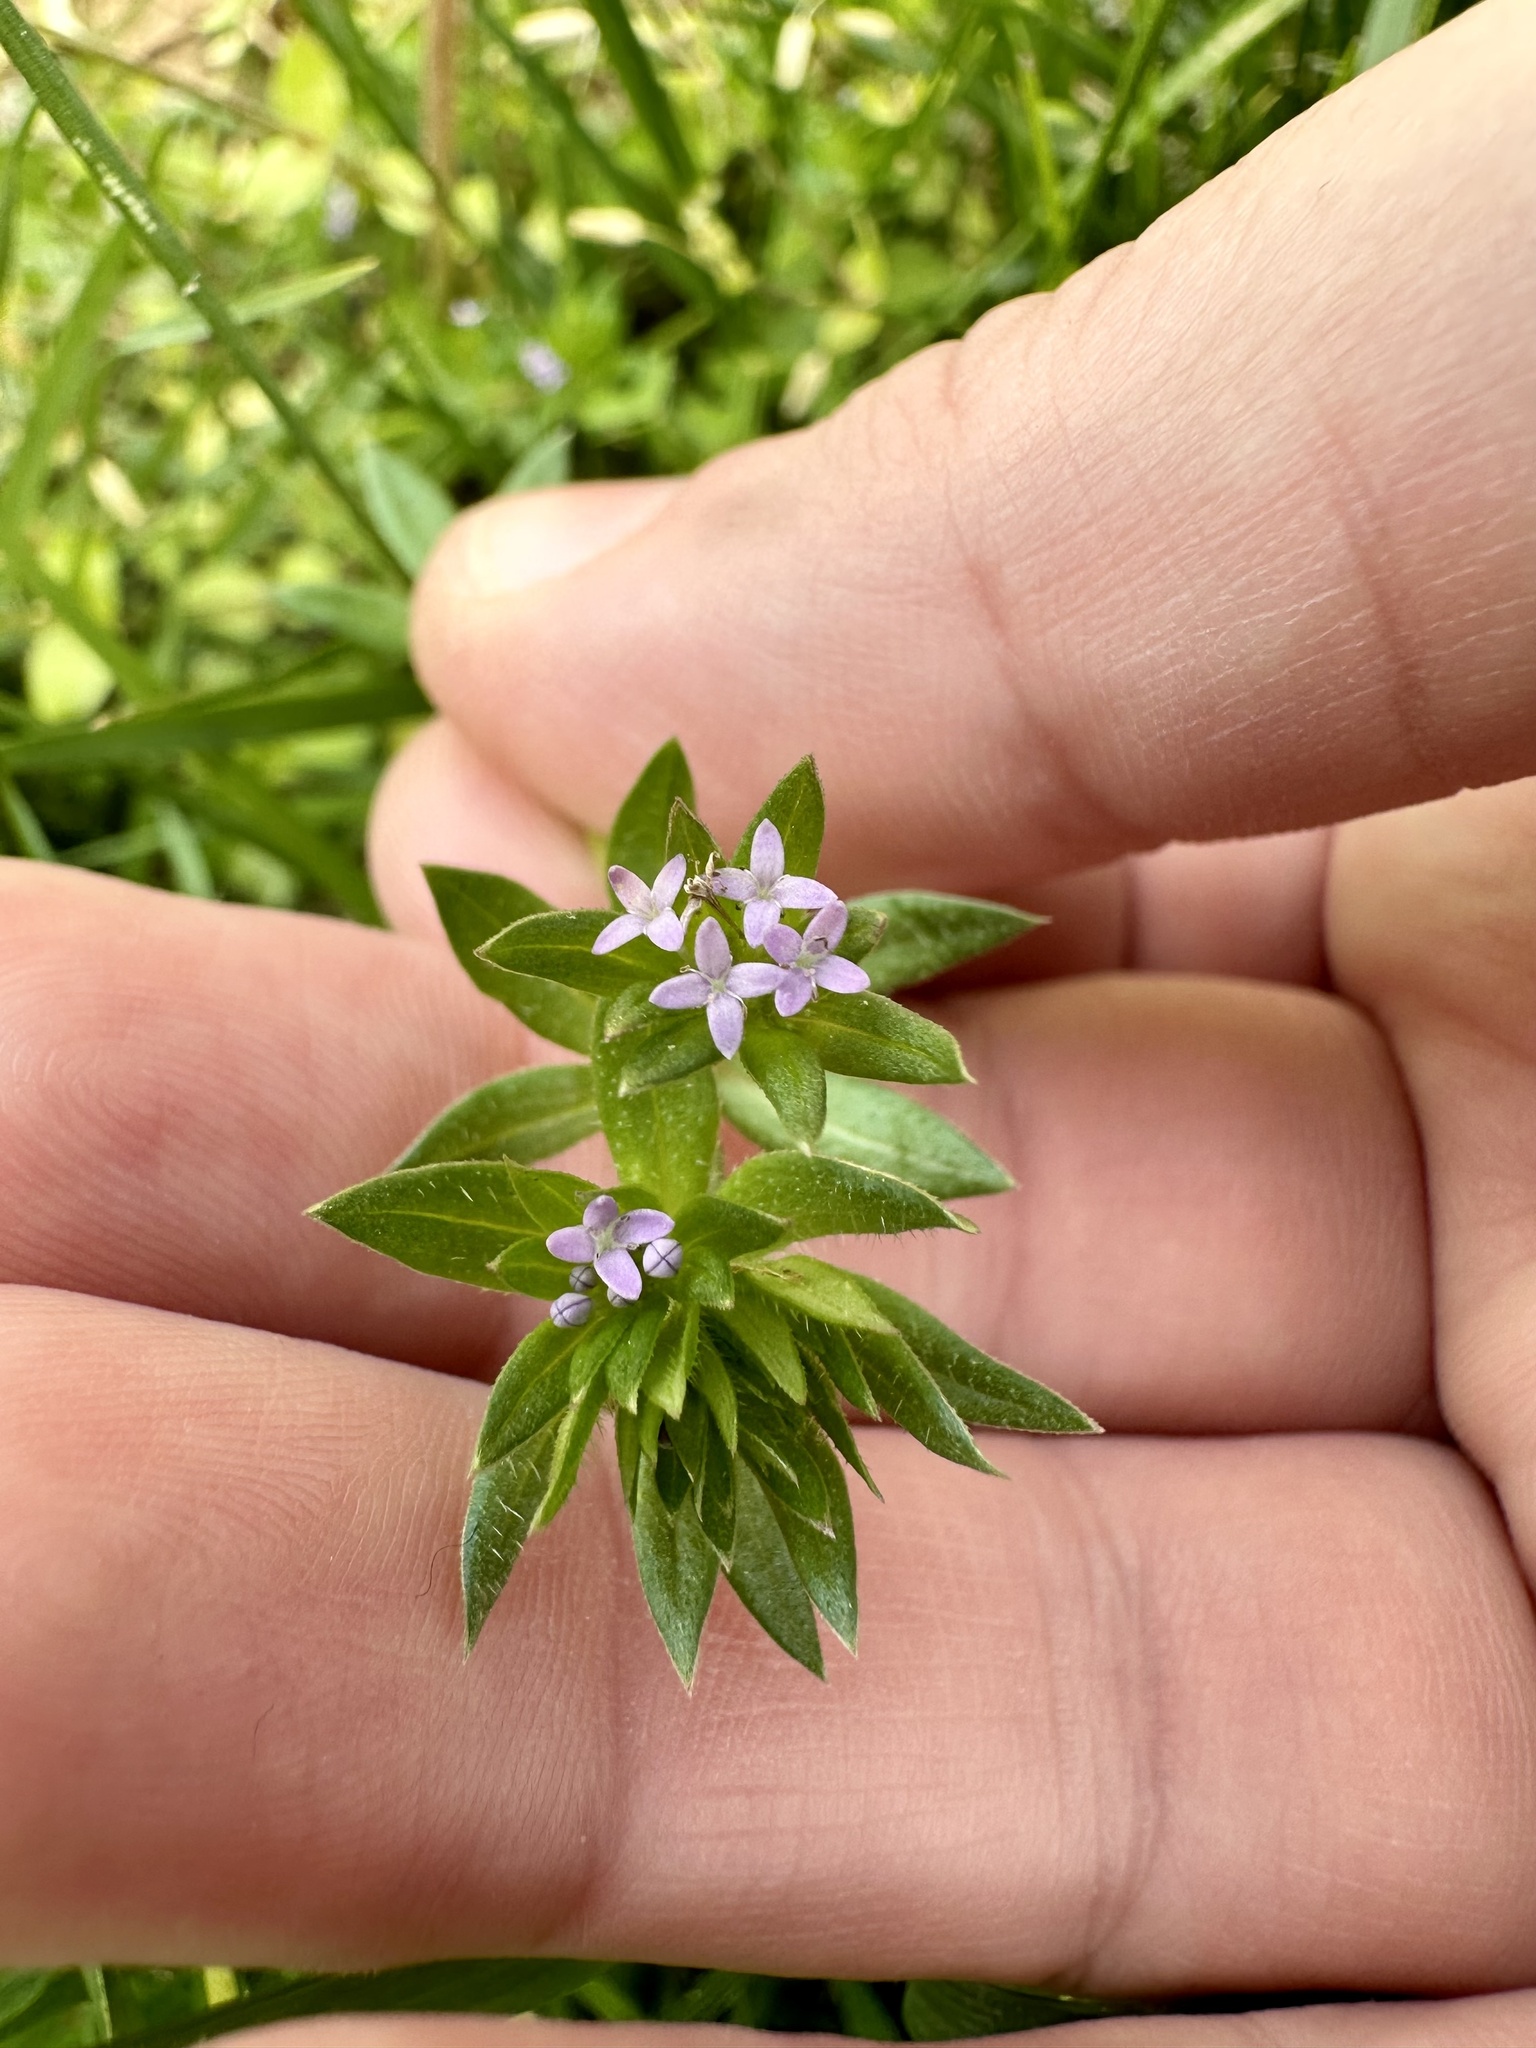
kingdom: Plantae
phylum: Tracheophyta
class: Magnoliopsida
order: Gentianales
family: Rubiaceae
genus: Sherardia
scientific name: Sherardia arvensis
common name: Field madder
